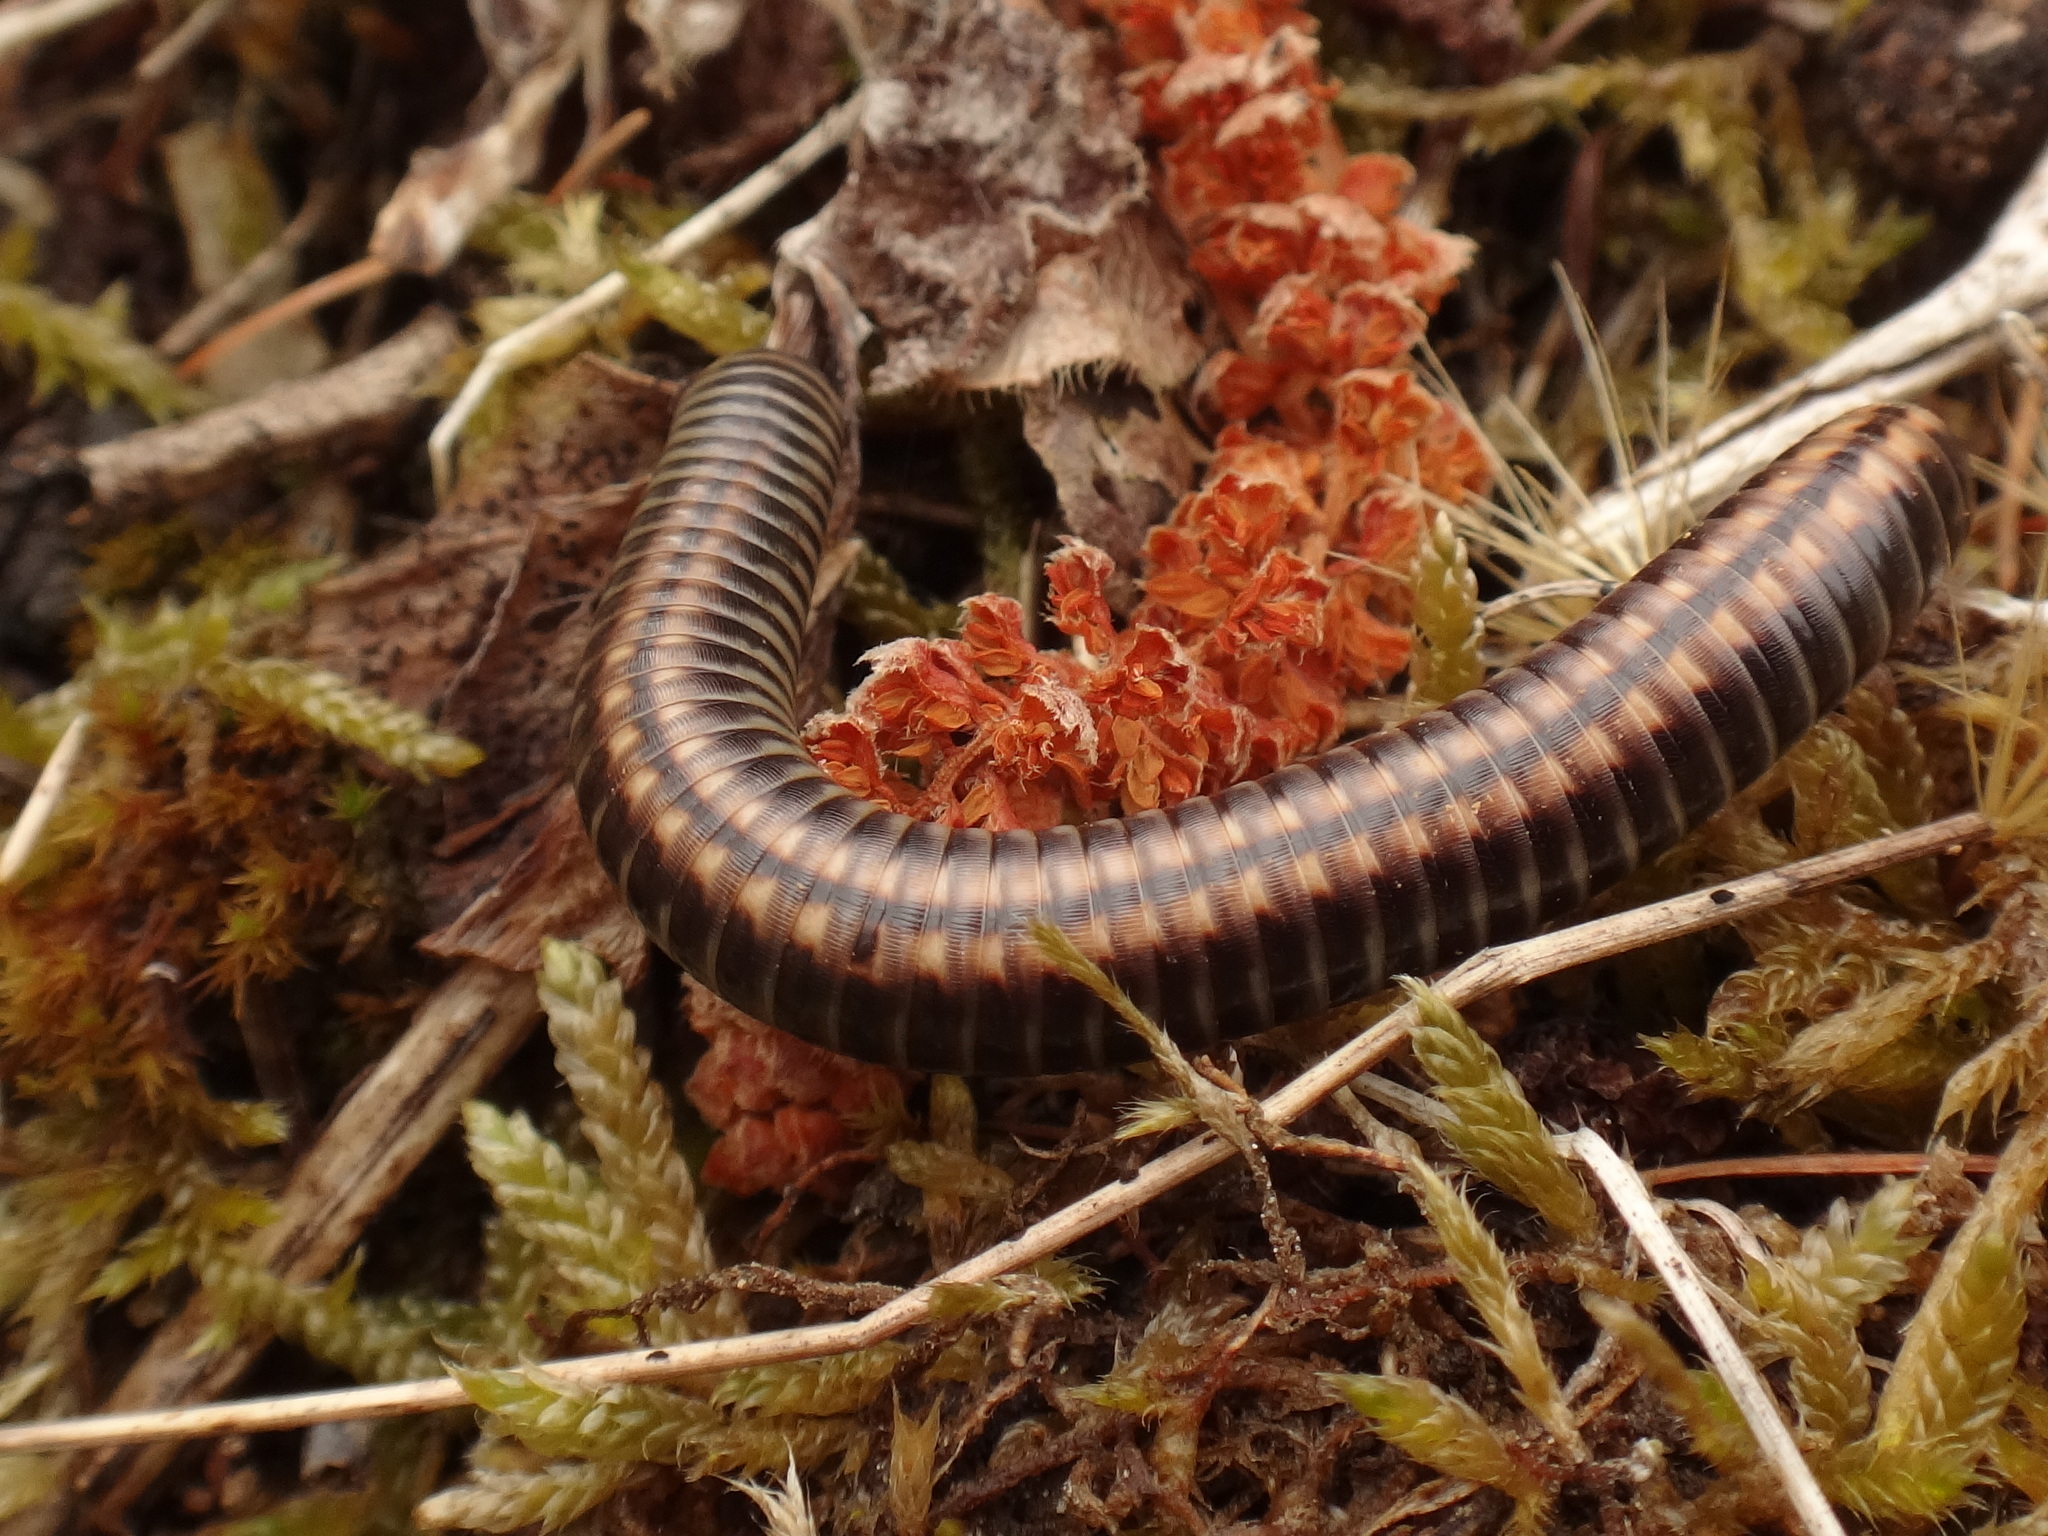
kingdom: Animalia
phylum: Arthropoda
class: Diplopoda
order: Julida
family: Julidae
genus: Ommatoiulus
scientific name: Ommatoiulus sabulosus
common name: Striped millipede
